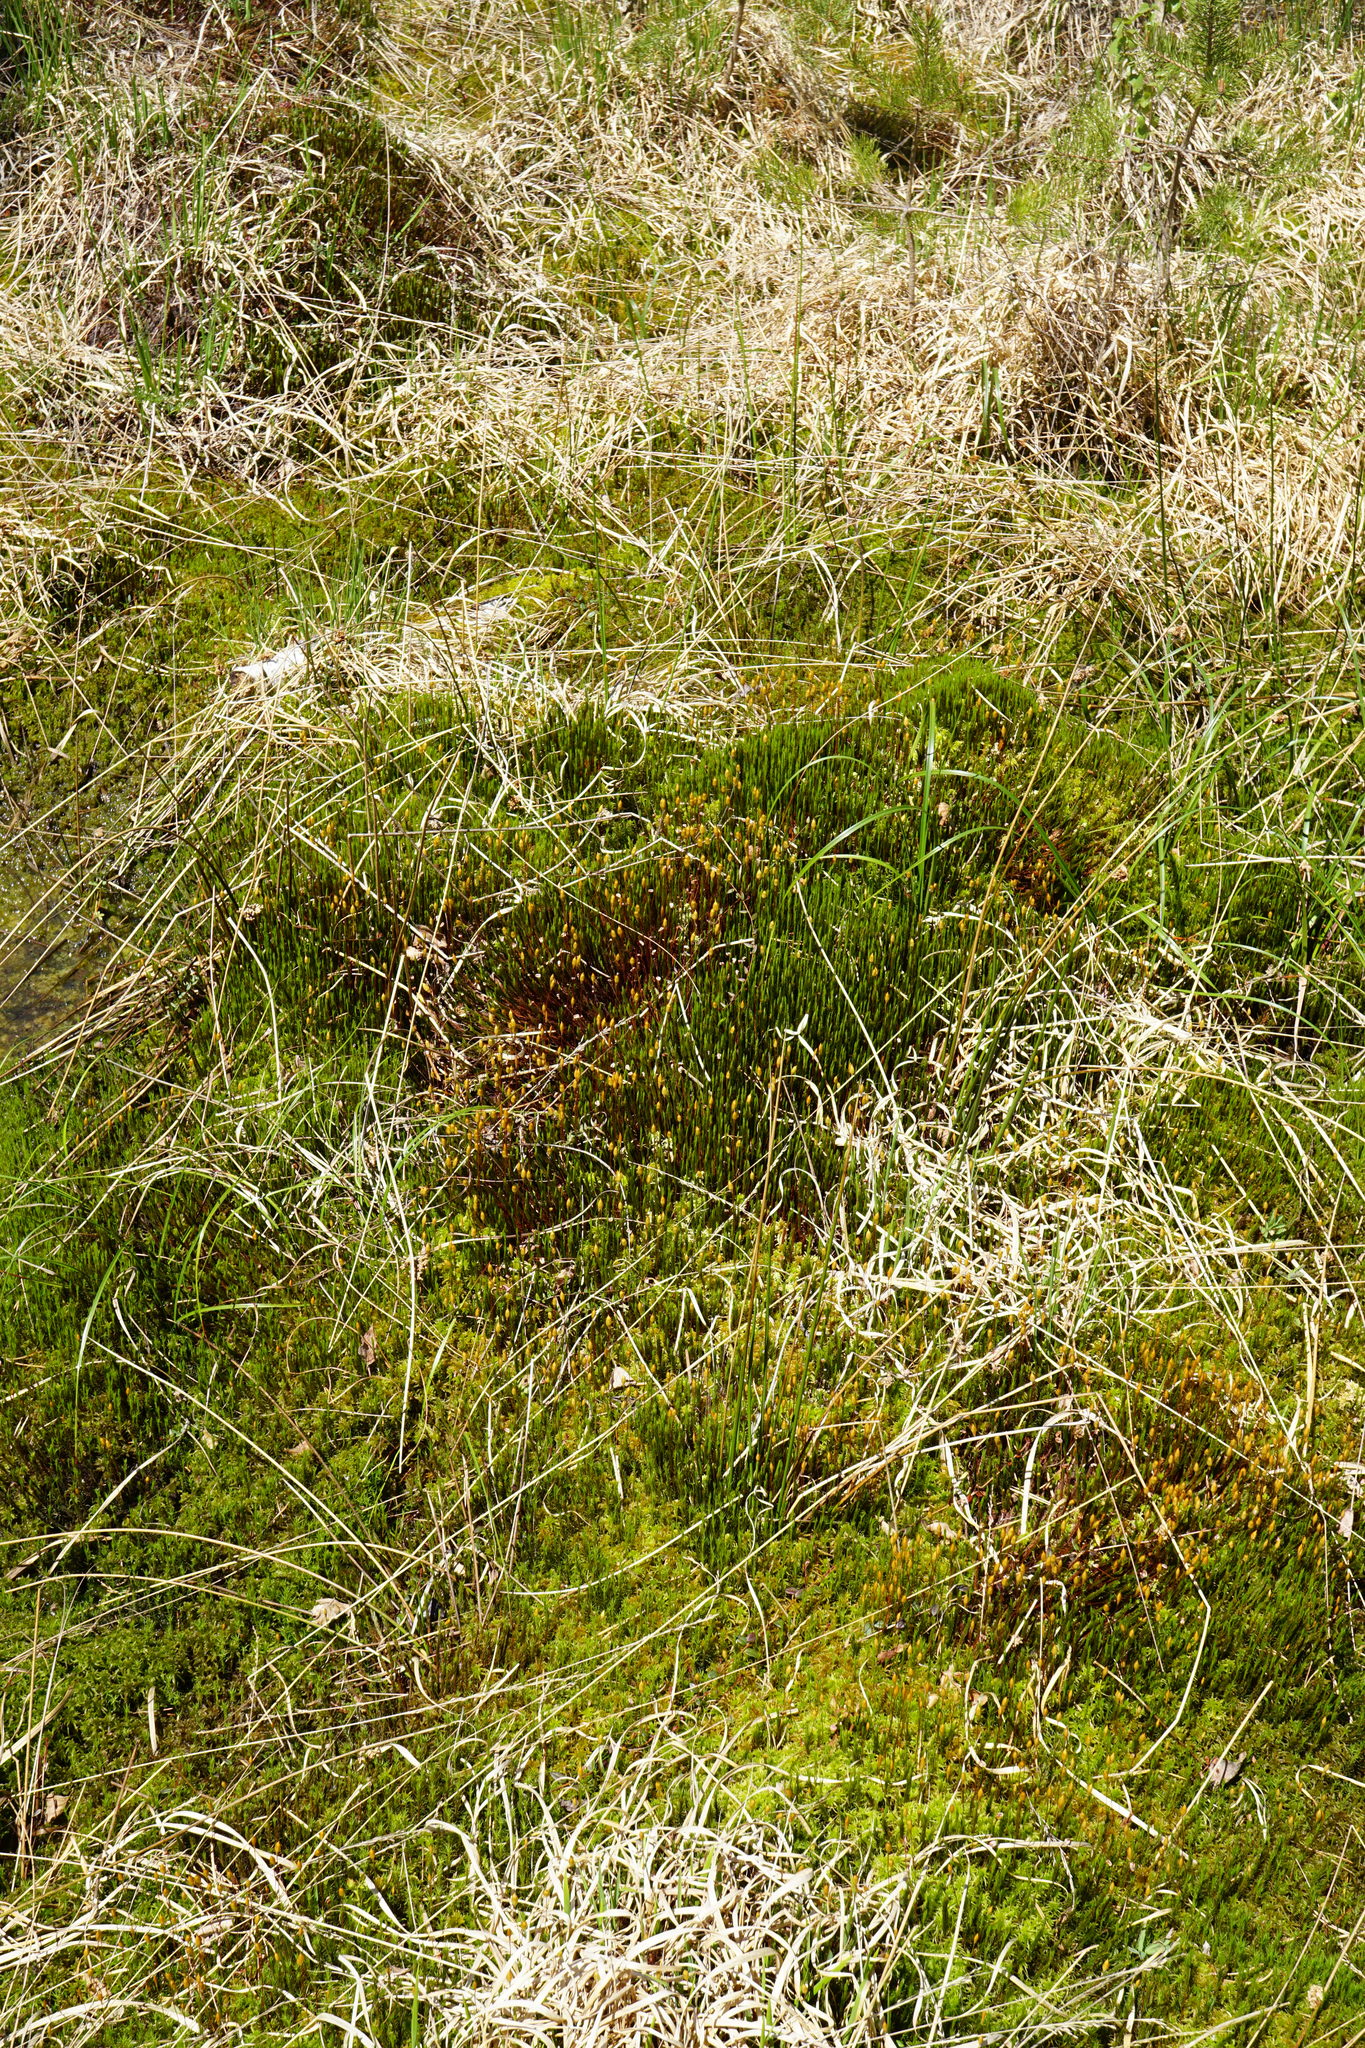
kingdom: Plantae
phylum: Bryophyta
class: Polytrichopsida
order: Polytrichales
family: Polytrichaceae
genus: Polytrichum
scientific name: Polytrichum commune
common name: Common haircap
